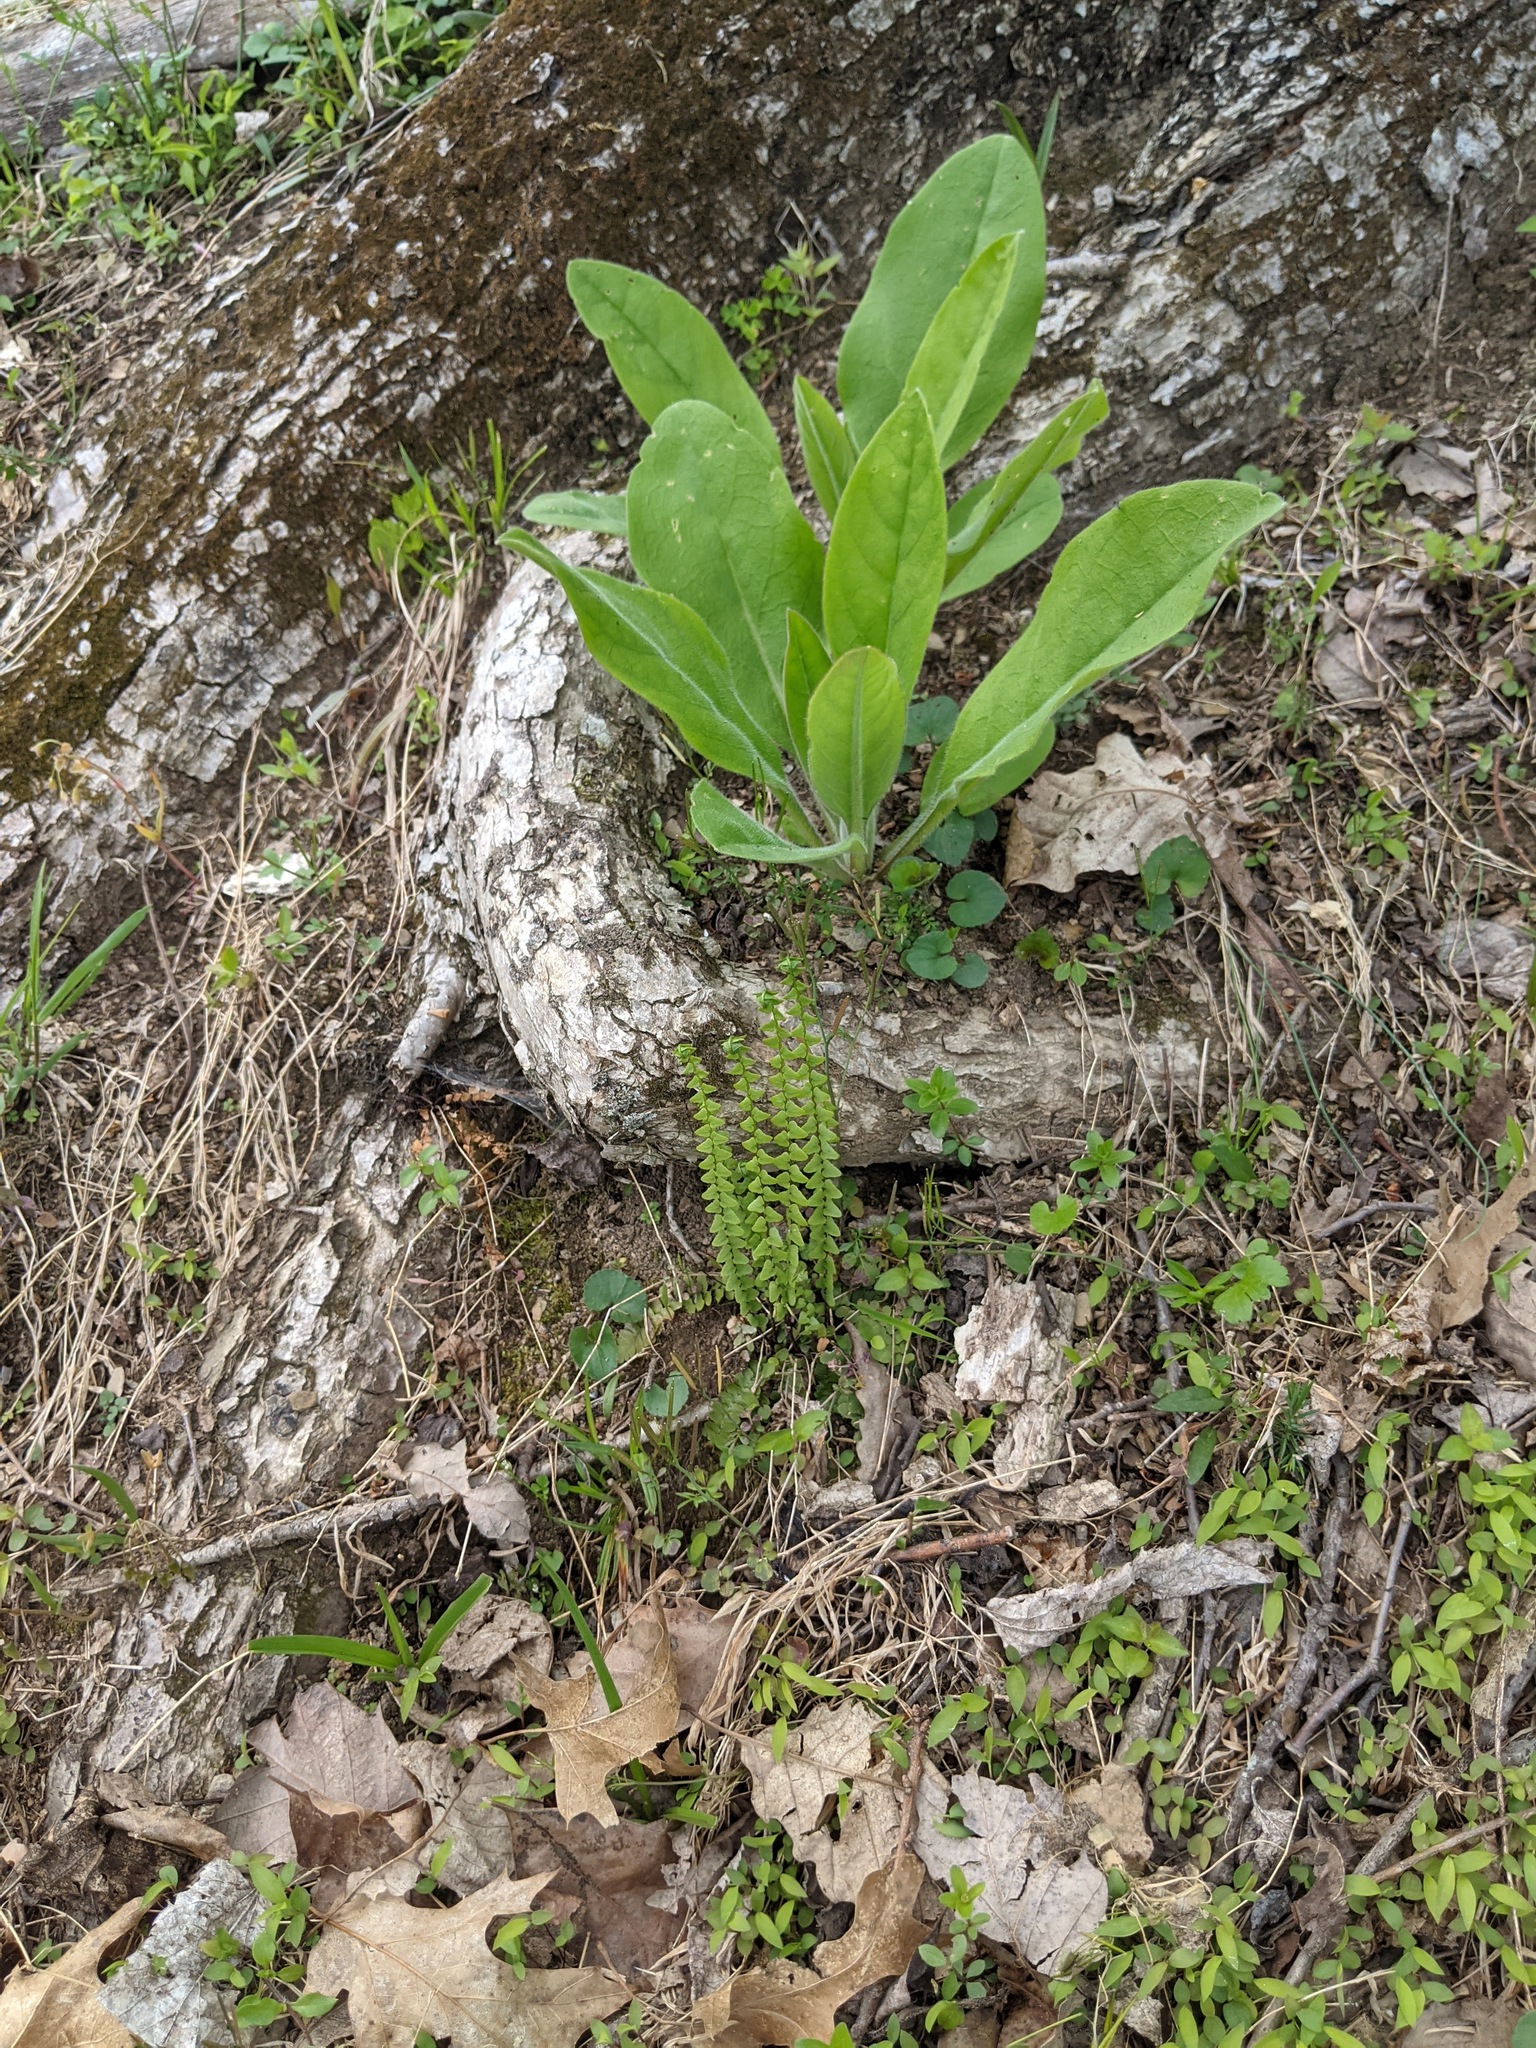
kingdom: Plantae
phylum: Tracheophyta
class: Polypodiopsida
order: Polypodiales
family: Aspleniaceae
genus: Asplenium
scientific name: Asplenium platyneuron
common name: Ebony spleenwort
